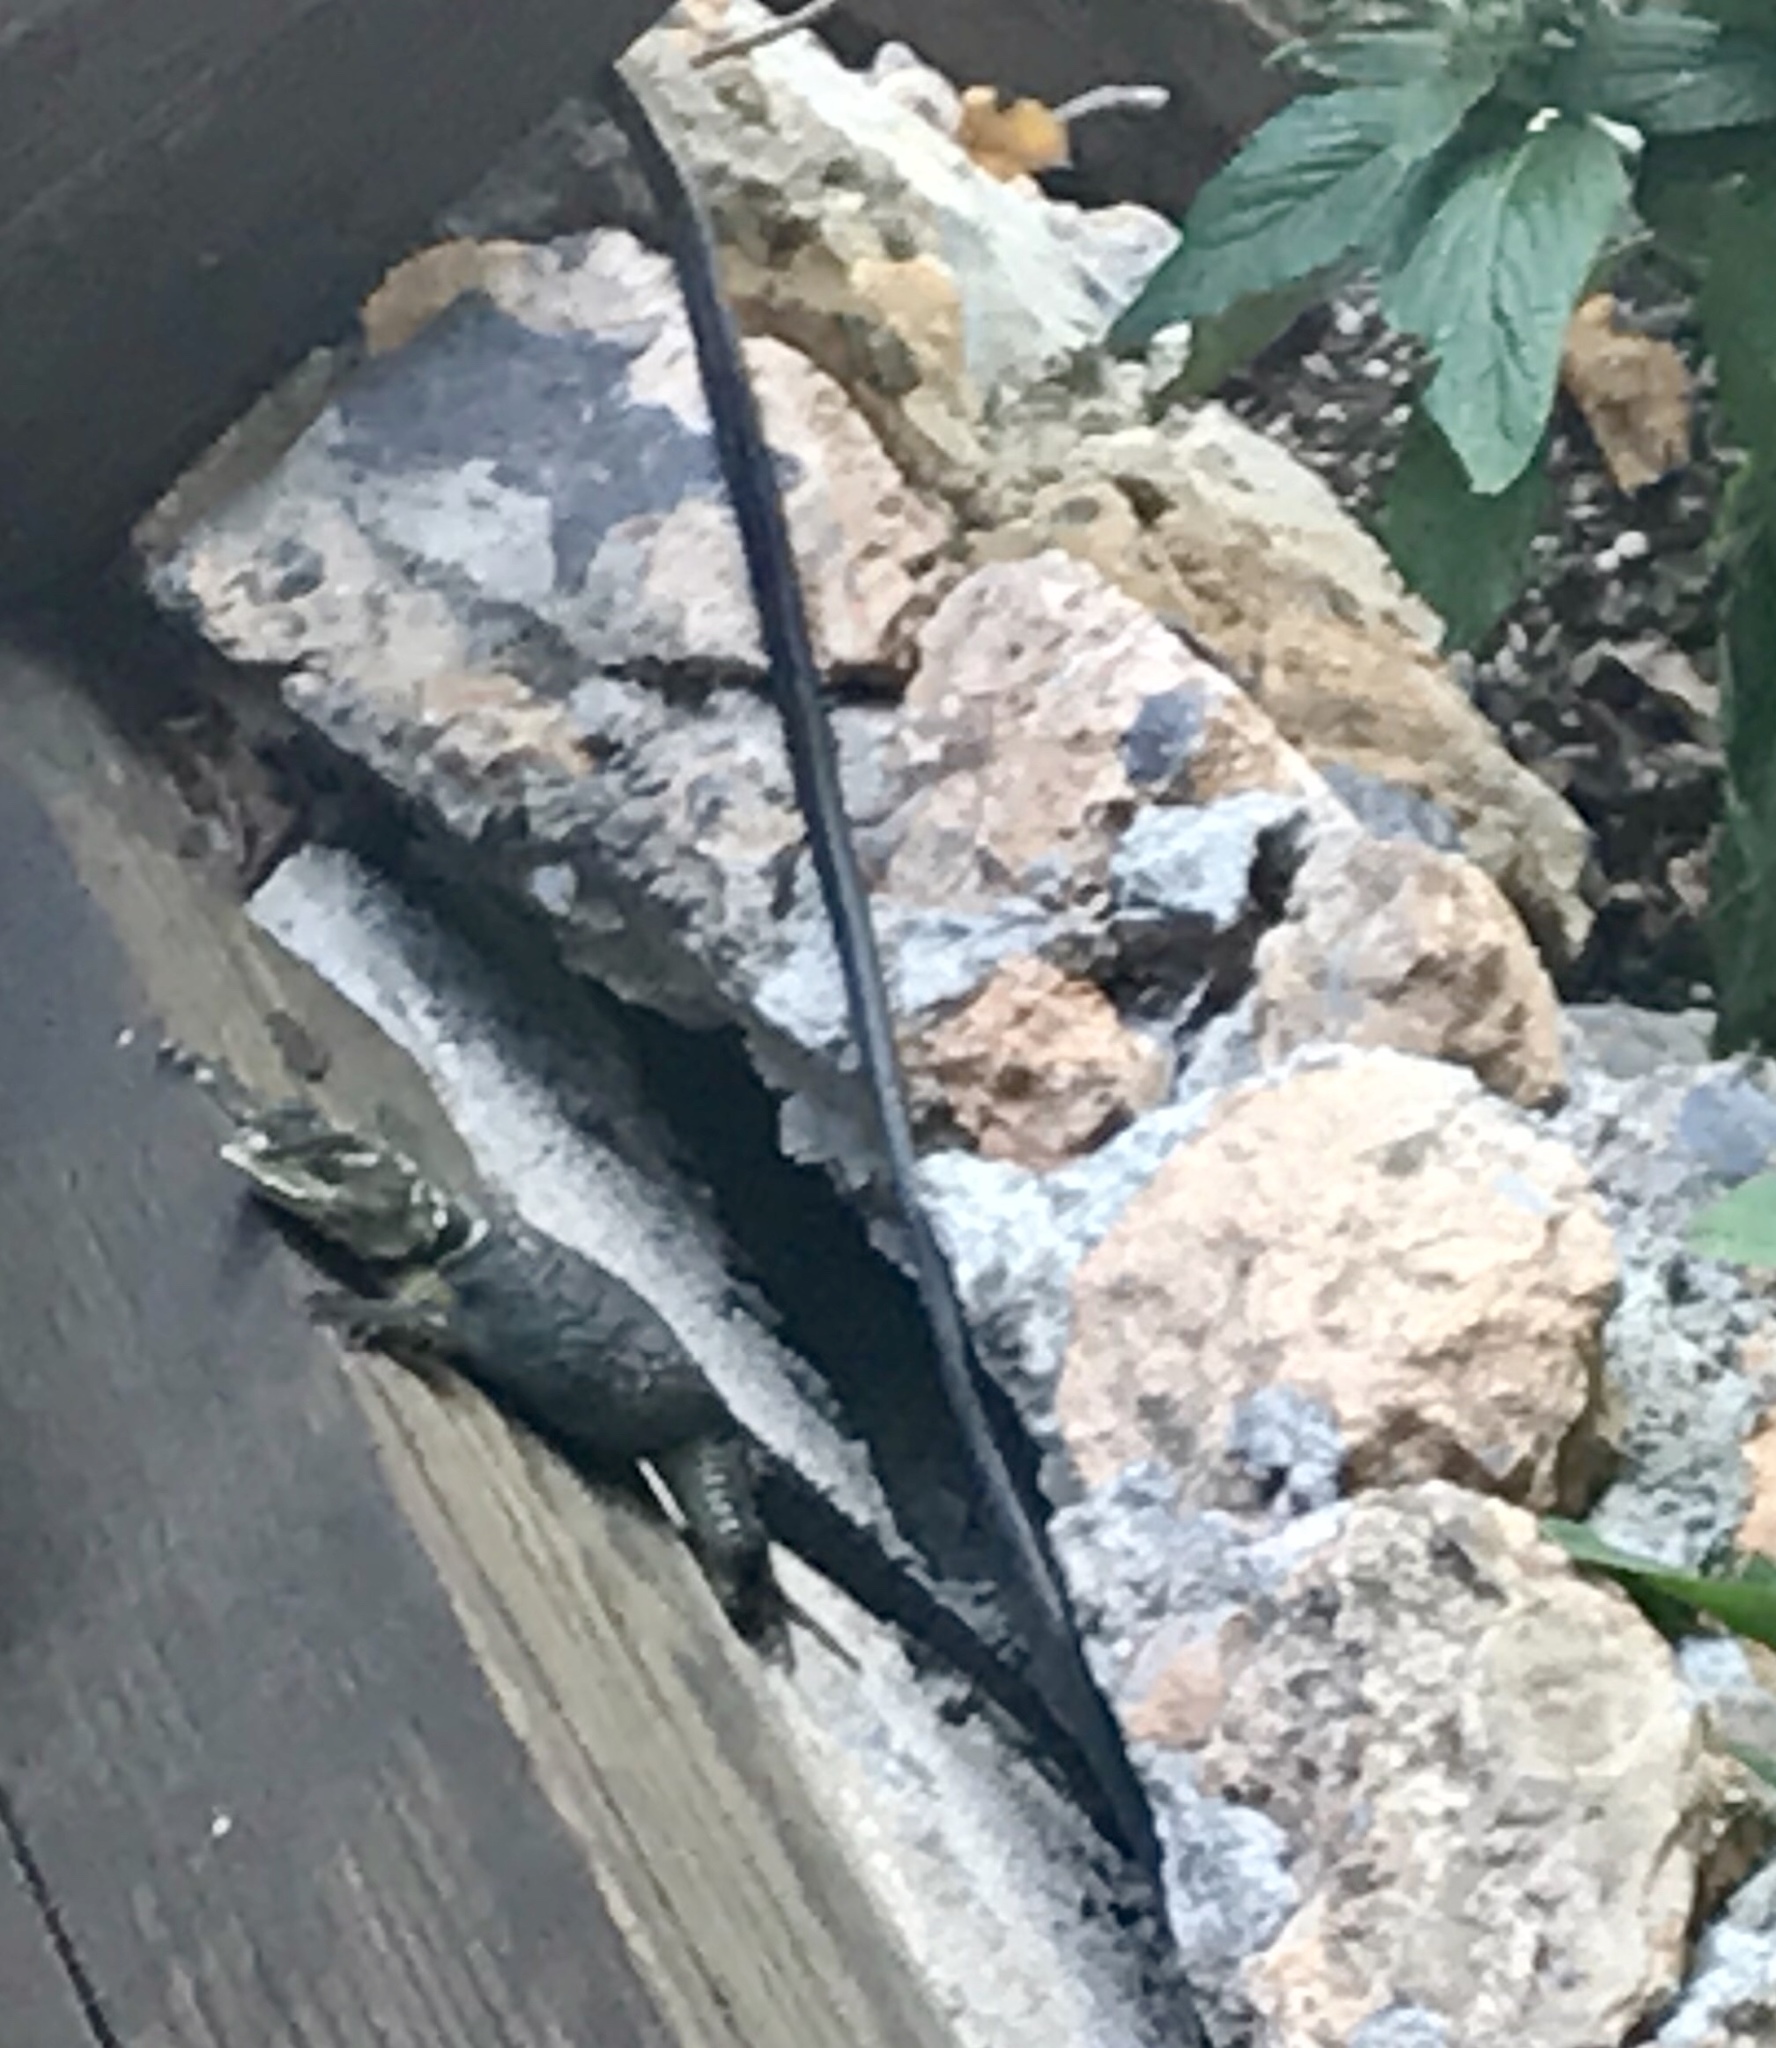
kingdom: Animalia
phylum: Chordata
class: Squamata
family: Phrynosomatidae
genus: Sceloporus
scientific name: Sceloporus cyanogenys
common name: Blue spiny lizard
